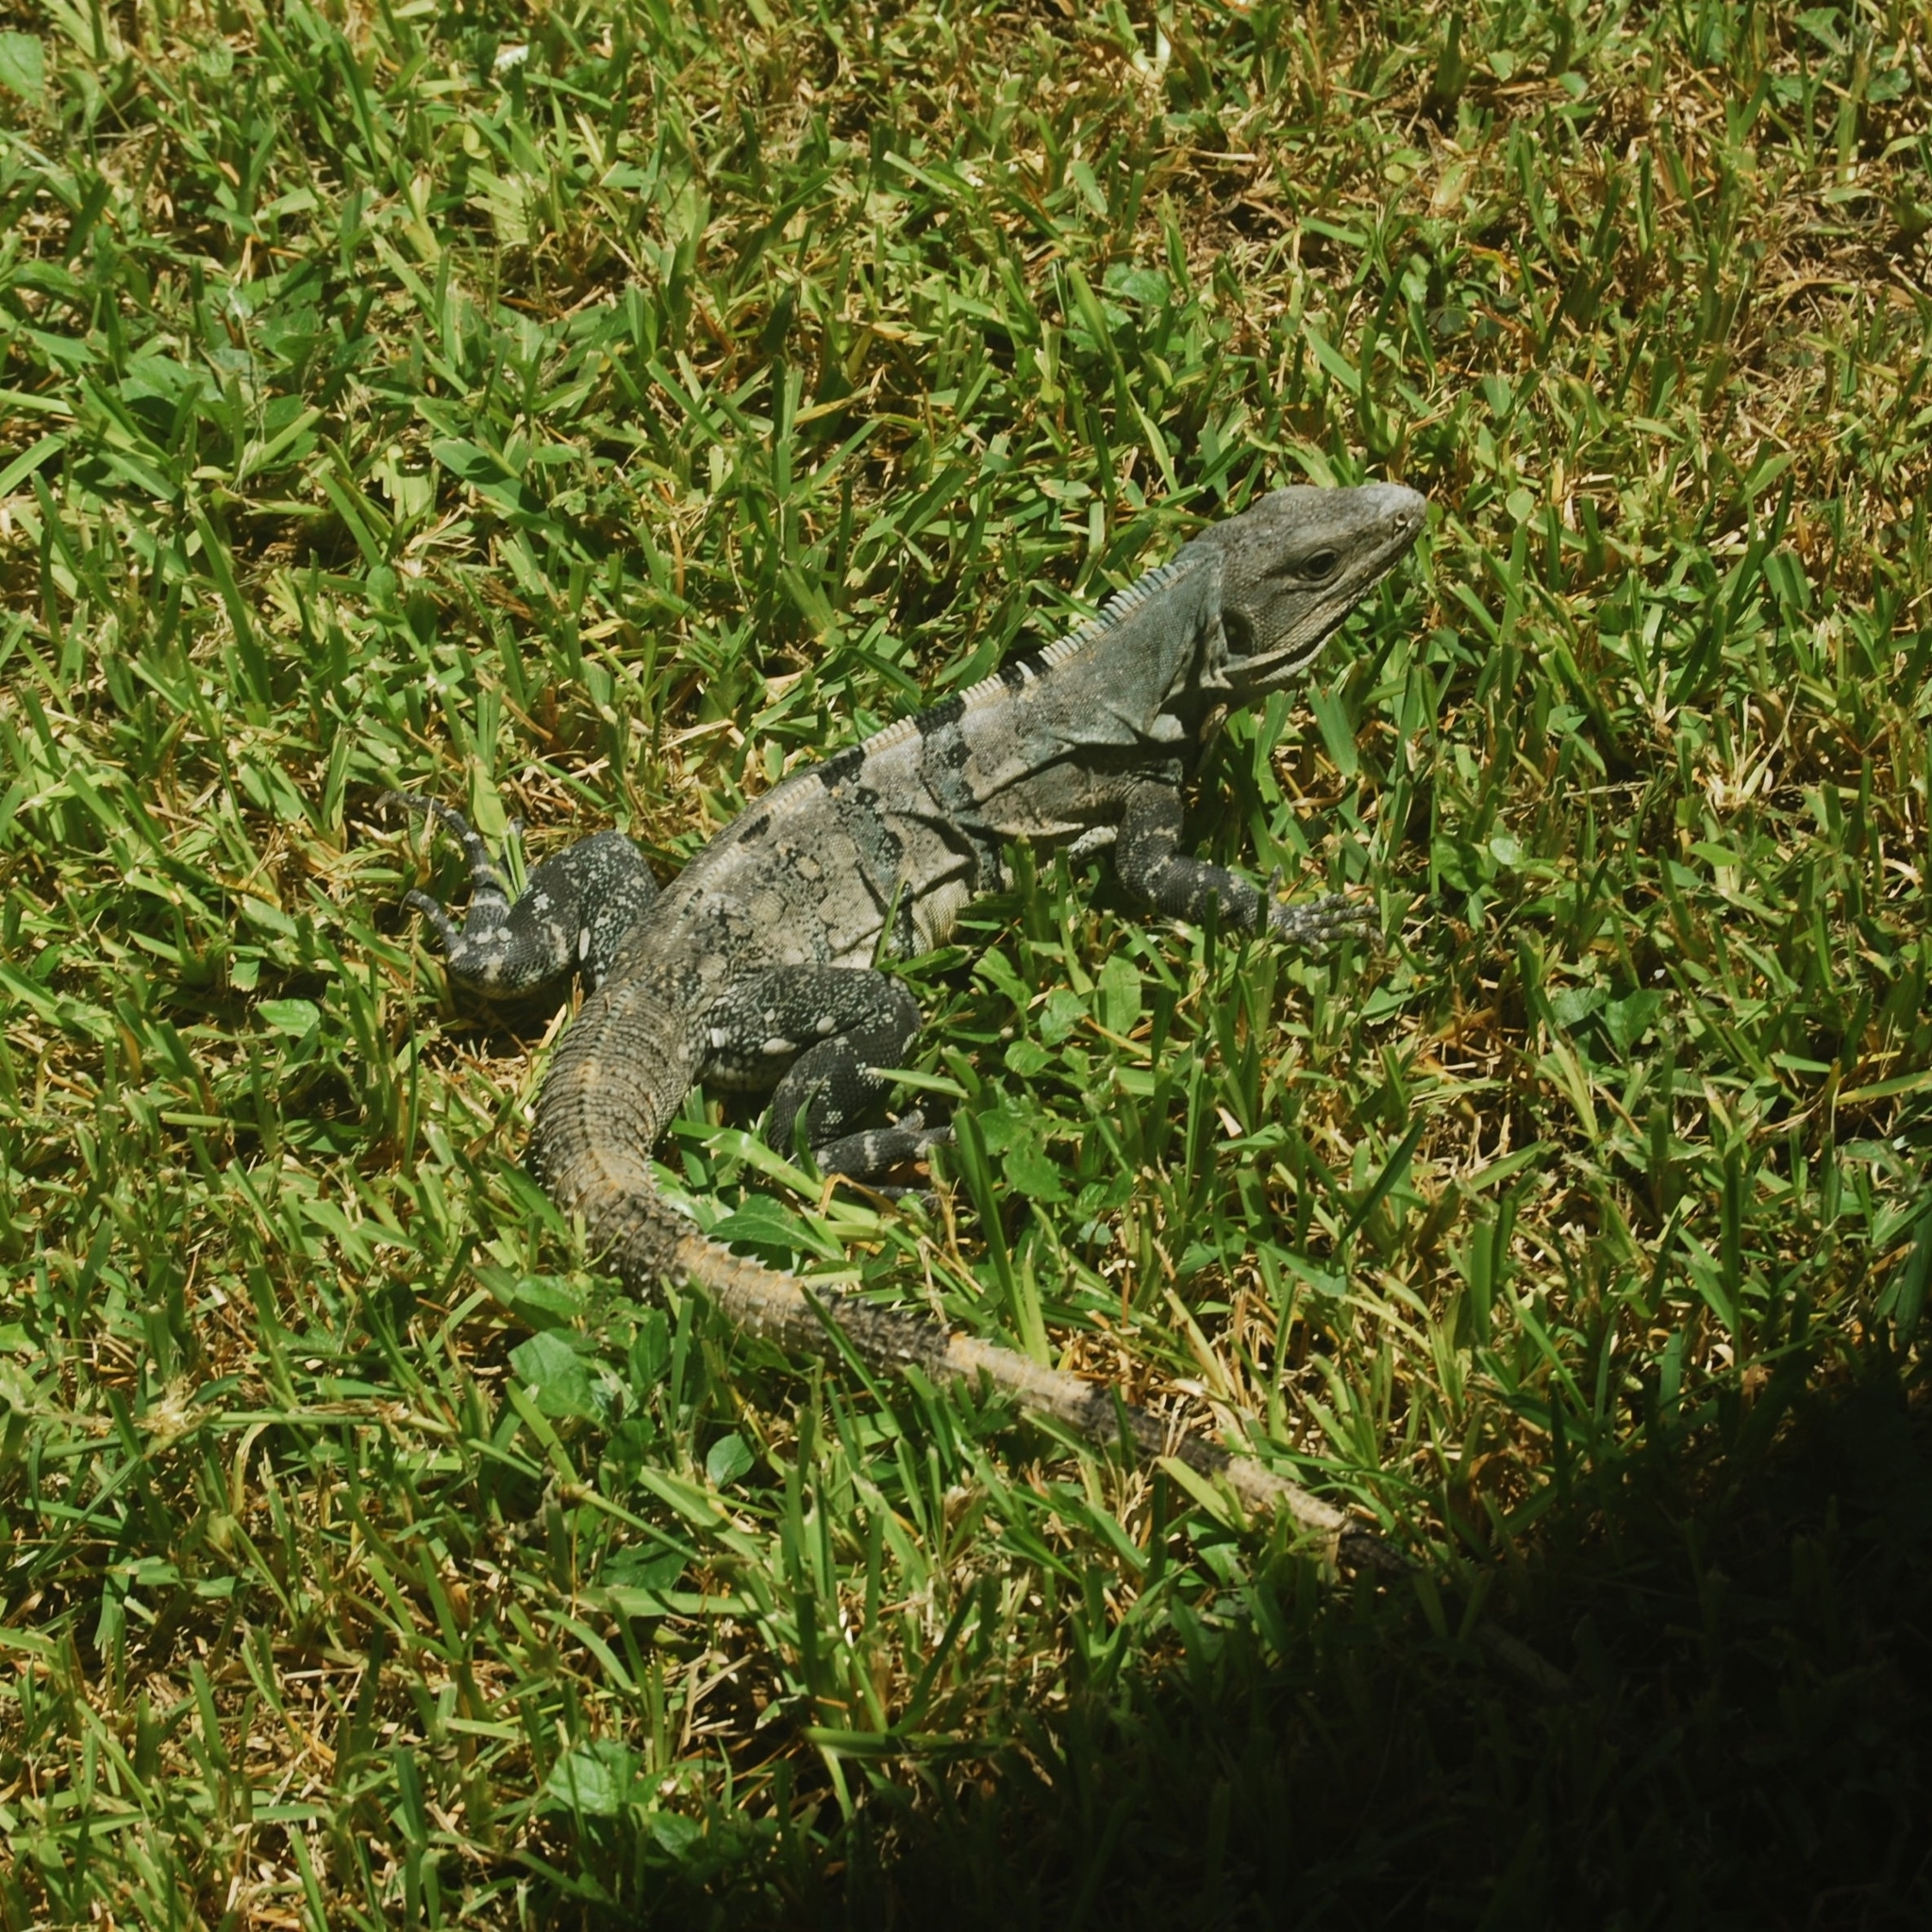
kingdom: Animalia
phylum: Chordata
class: Squamata
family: Iguanidae
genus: Ctenosaura
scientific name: Ctenosaura similis
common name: Black spiny-tailed iguana
